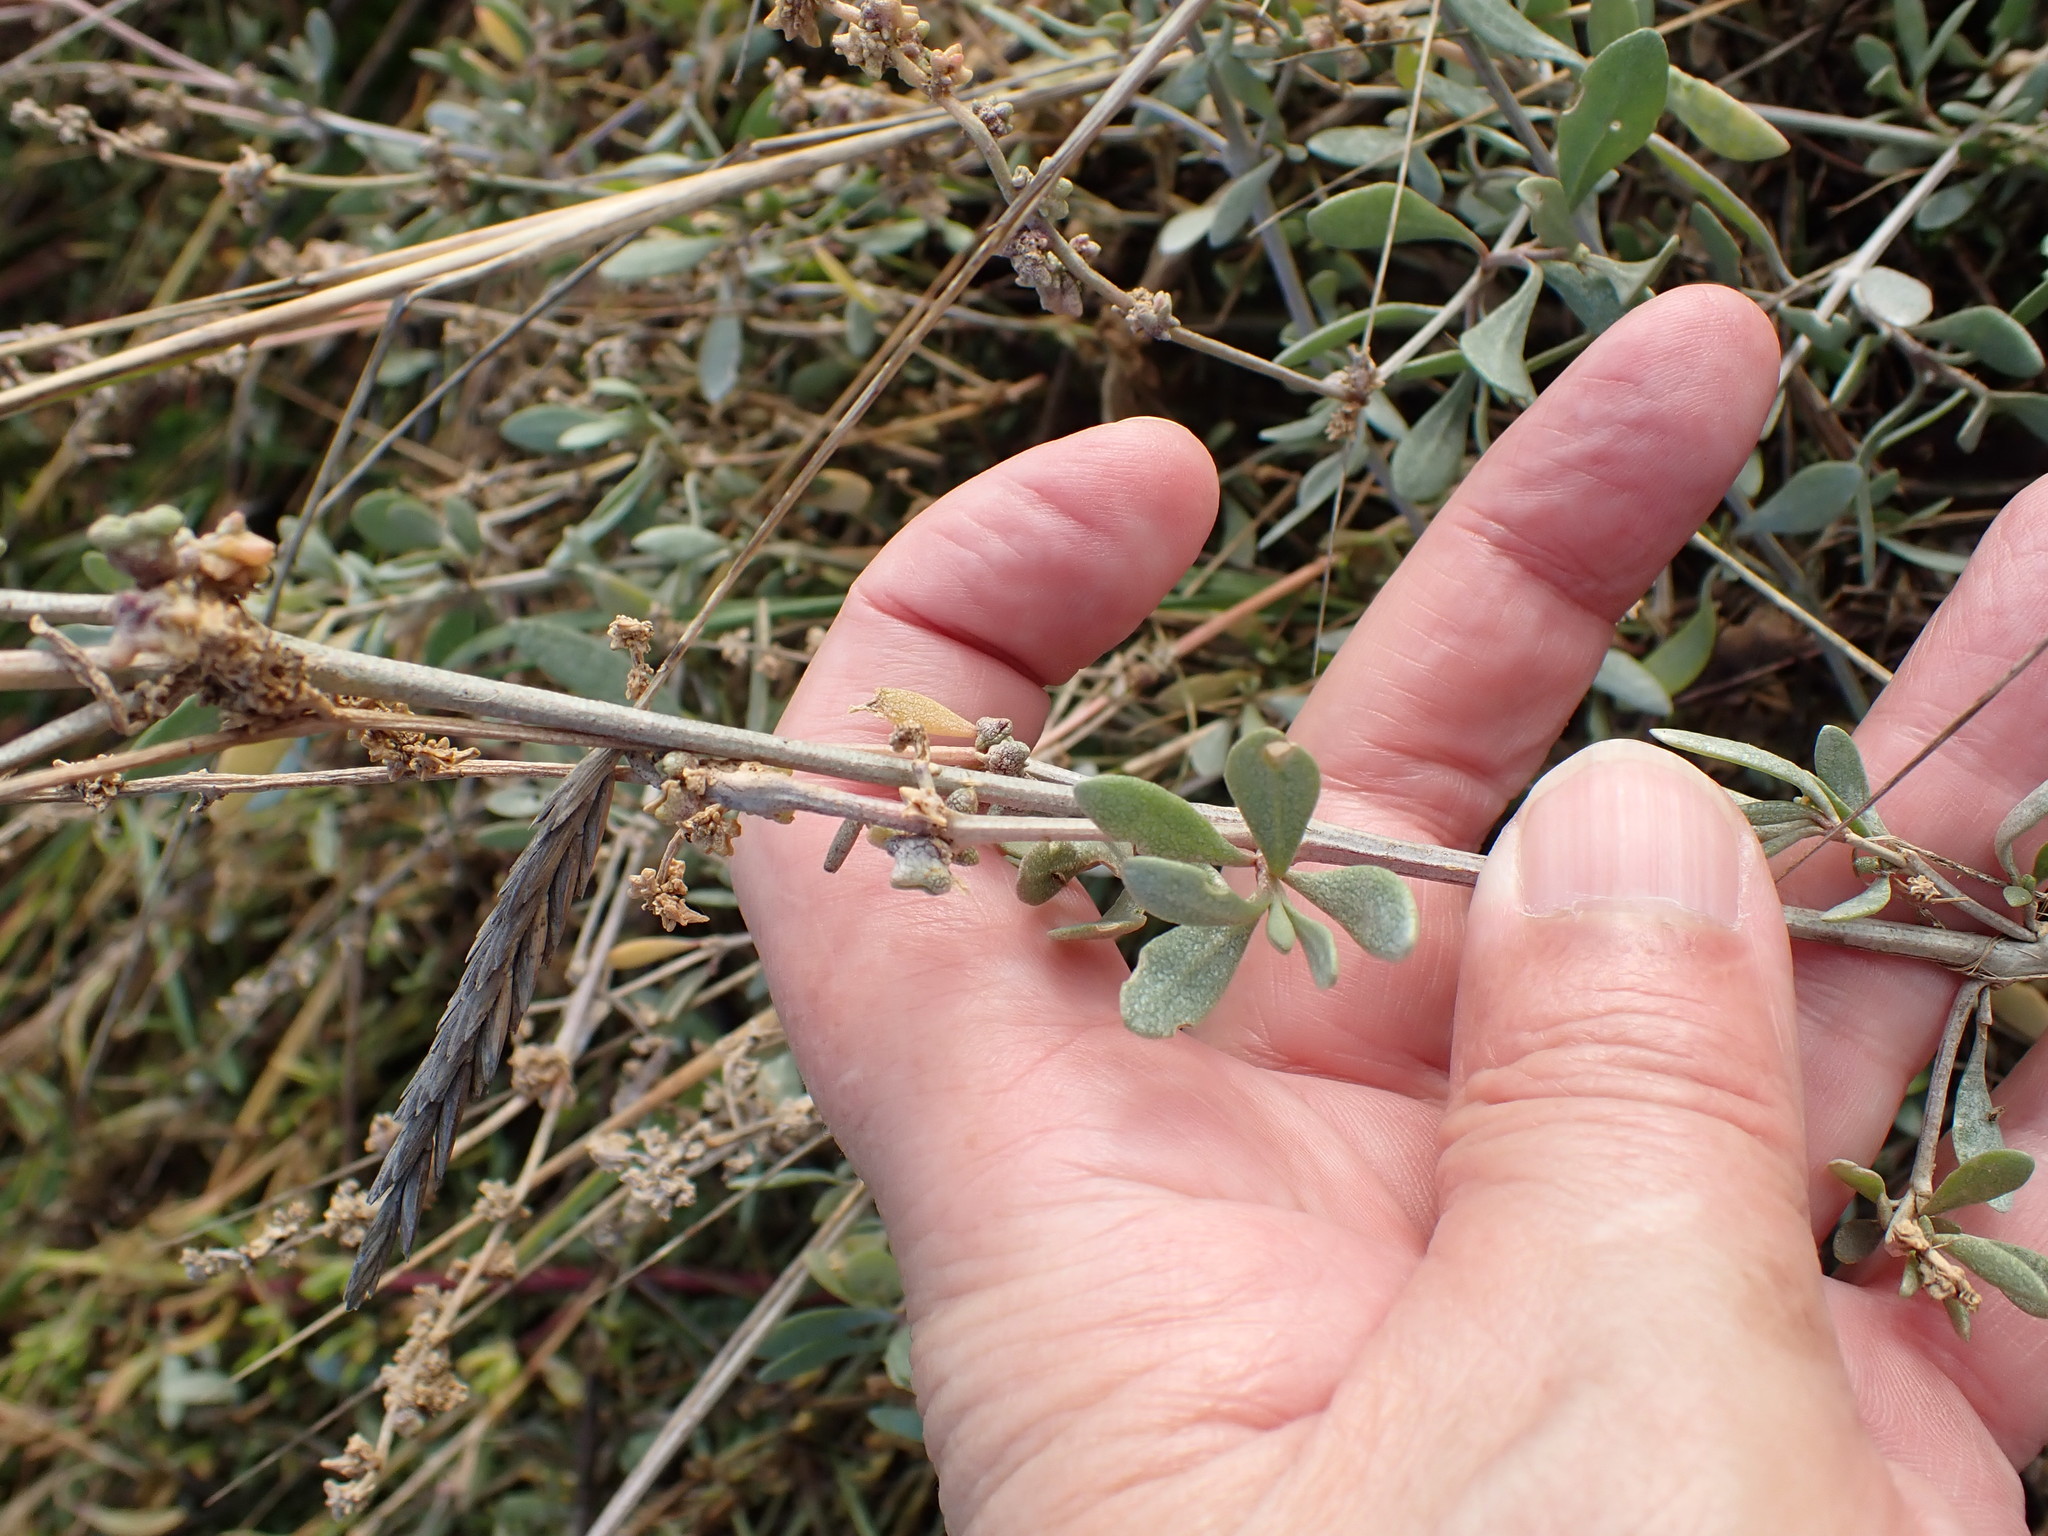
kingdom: Plantae
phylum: Tracheophyta
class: Magnoliopsida
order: Caryophyllales
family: Amaranthaceae
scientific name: Amaranthaceae
